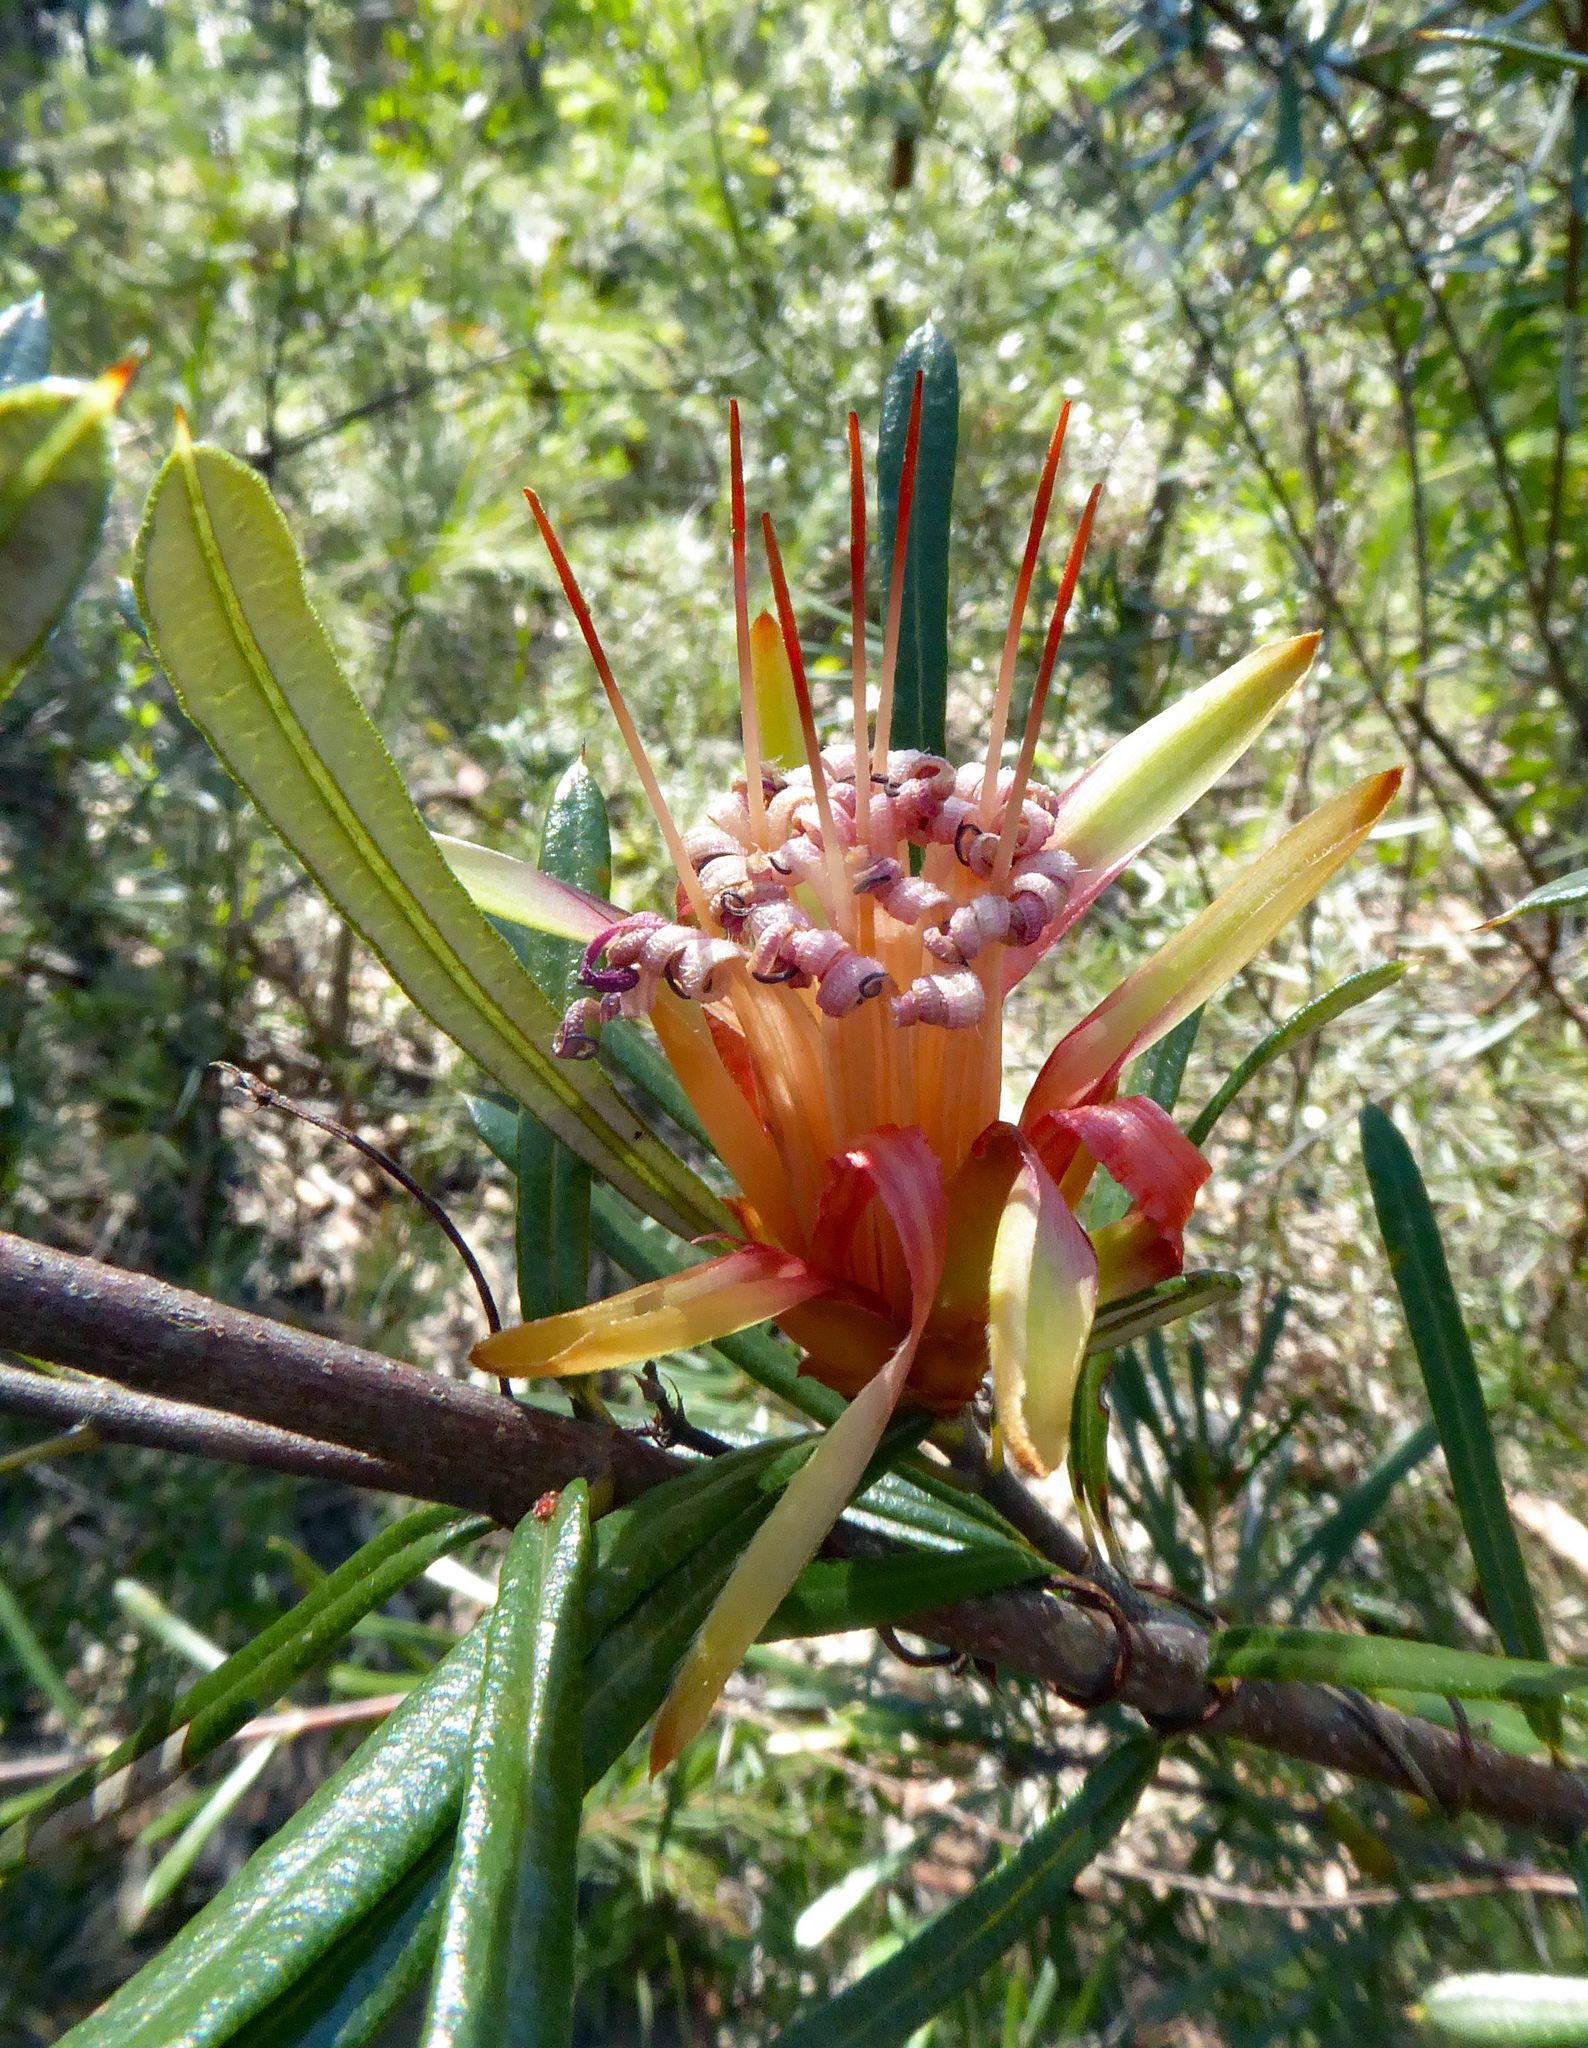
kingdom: Plantae
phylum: Tracheophyta
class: Magnoliopsida
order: Proteales
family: Proteaceae
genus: Lambertia
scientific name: Lambertia formosa
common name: Mountain-devil
